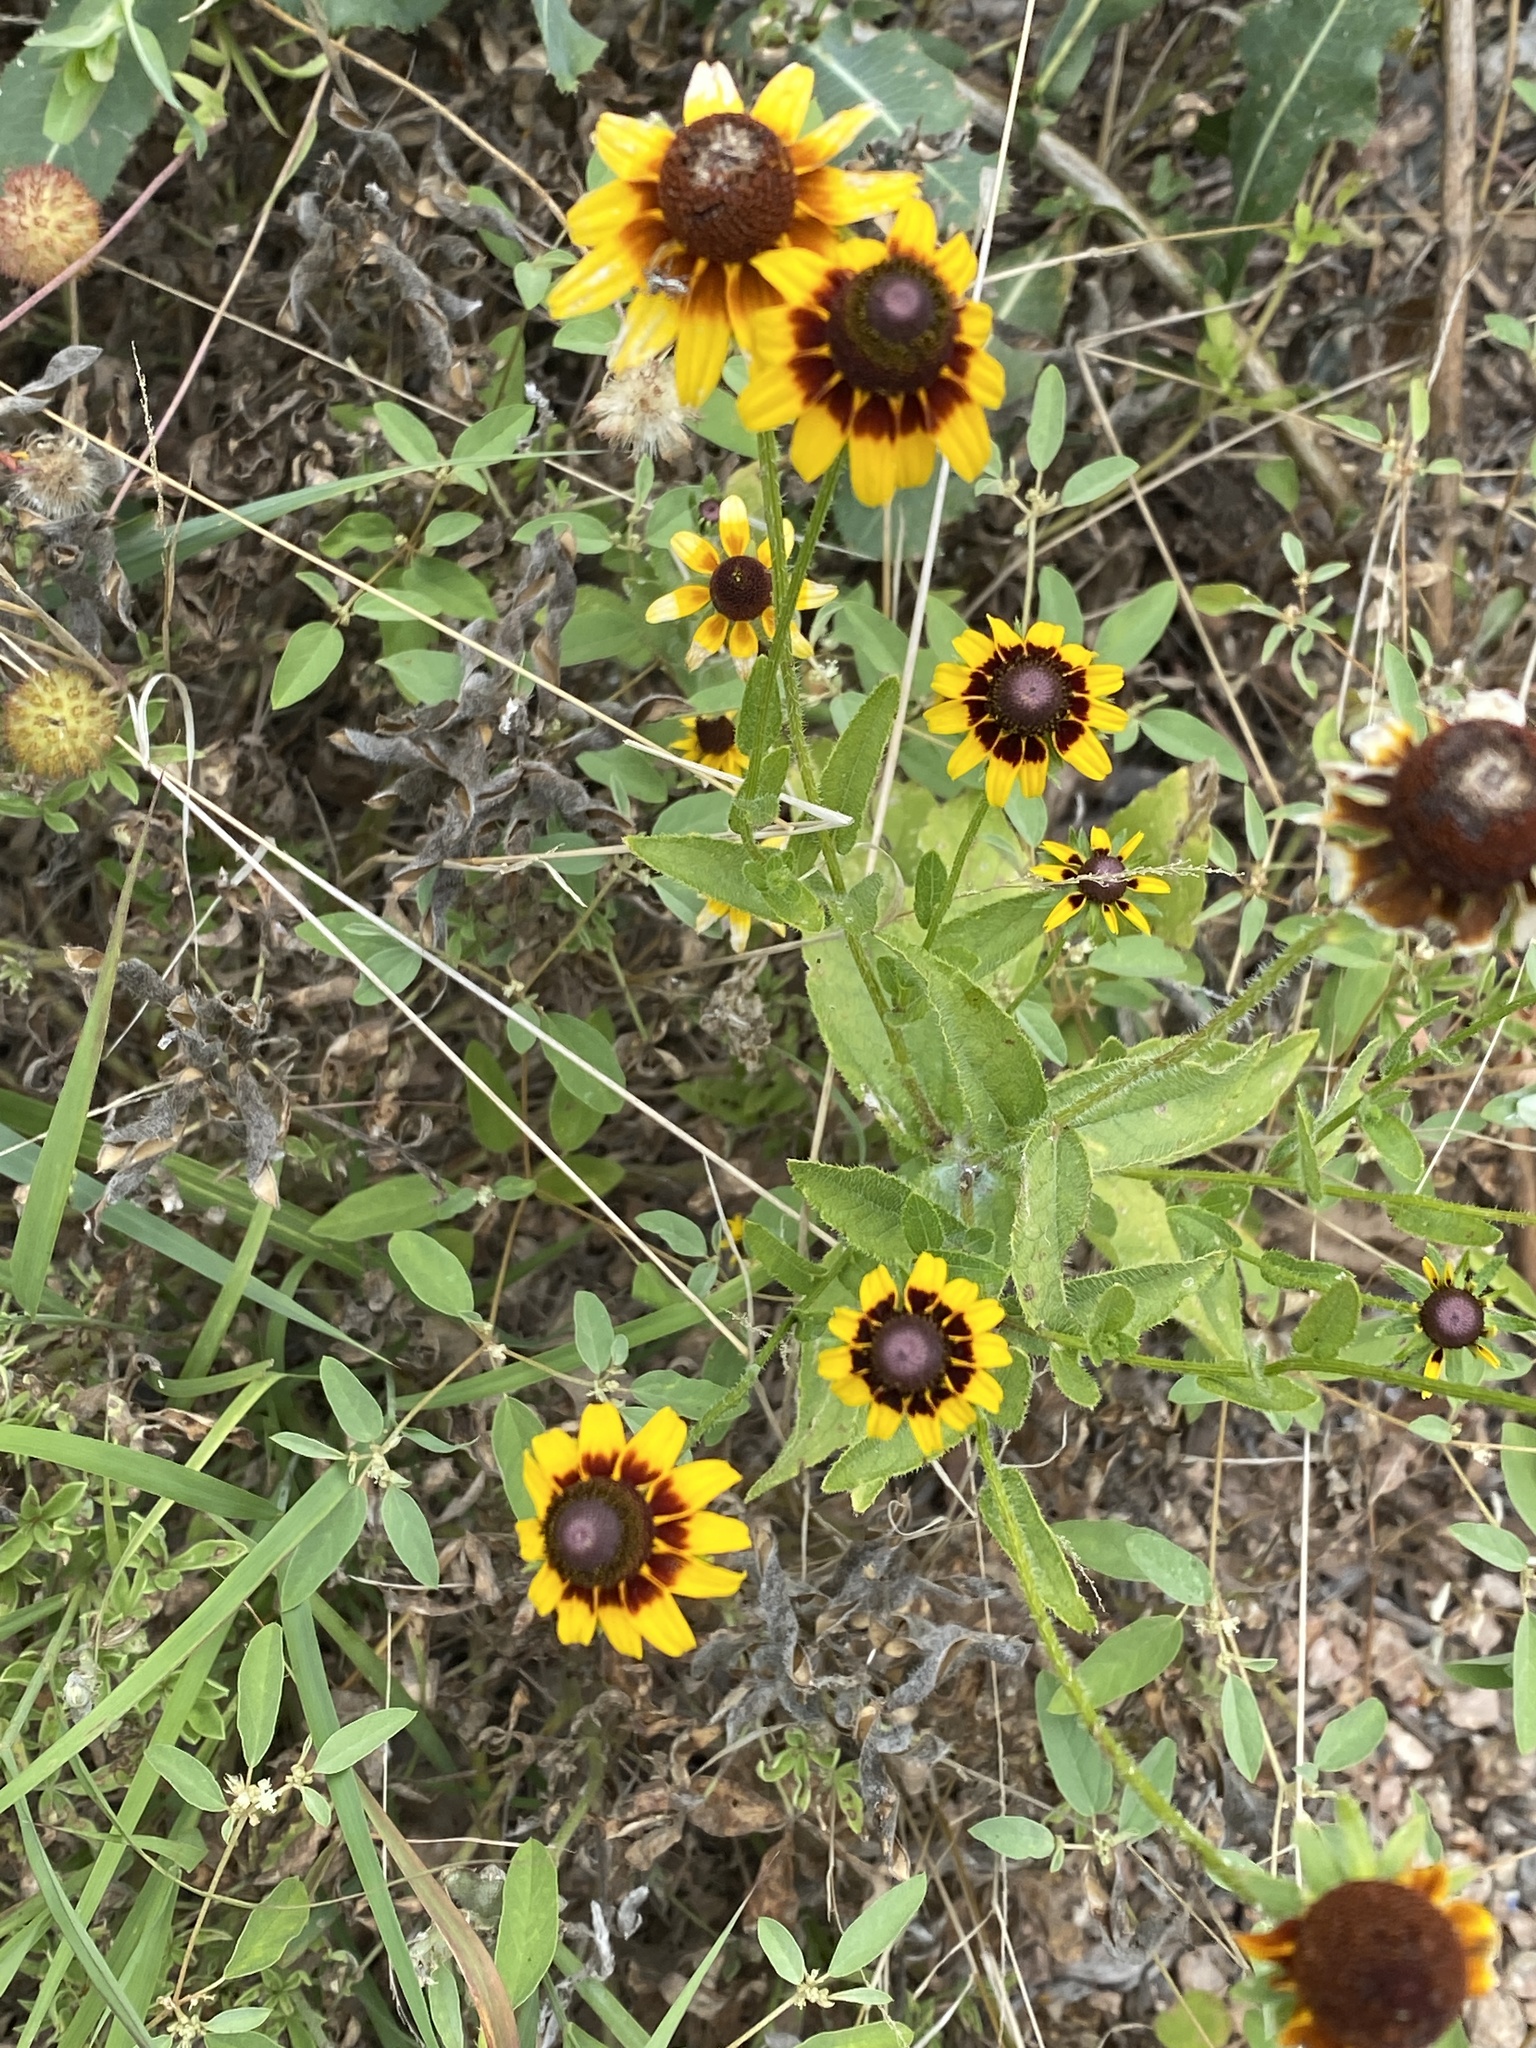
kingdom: Plantae
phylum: Tracheophyta
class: Magnoliopsida
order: Asterales
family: Asteraceae
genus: Rudbeckia
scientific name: Rudbeckia hirta
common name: Black-eyed-susan
